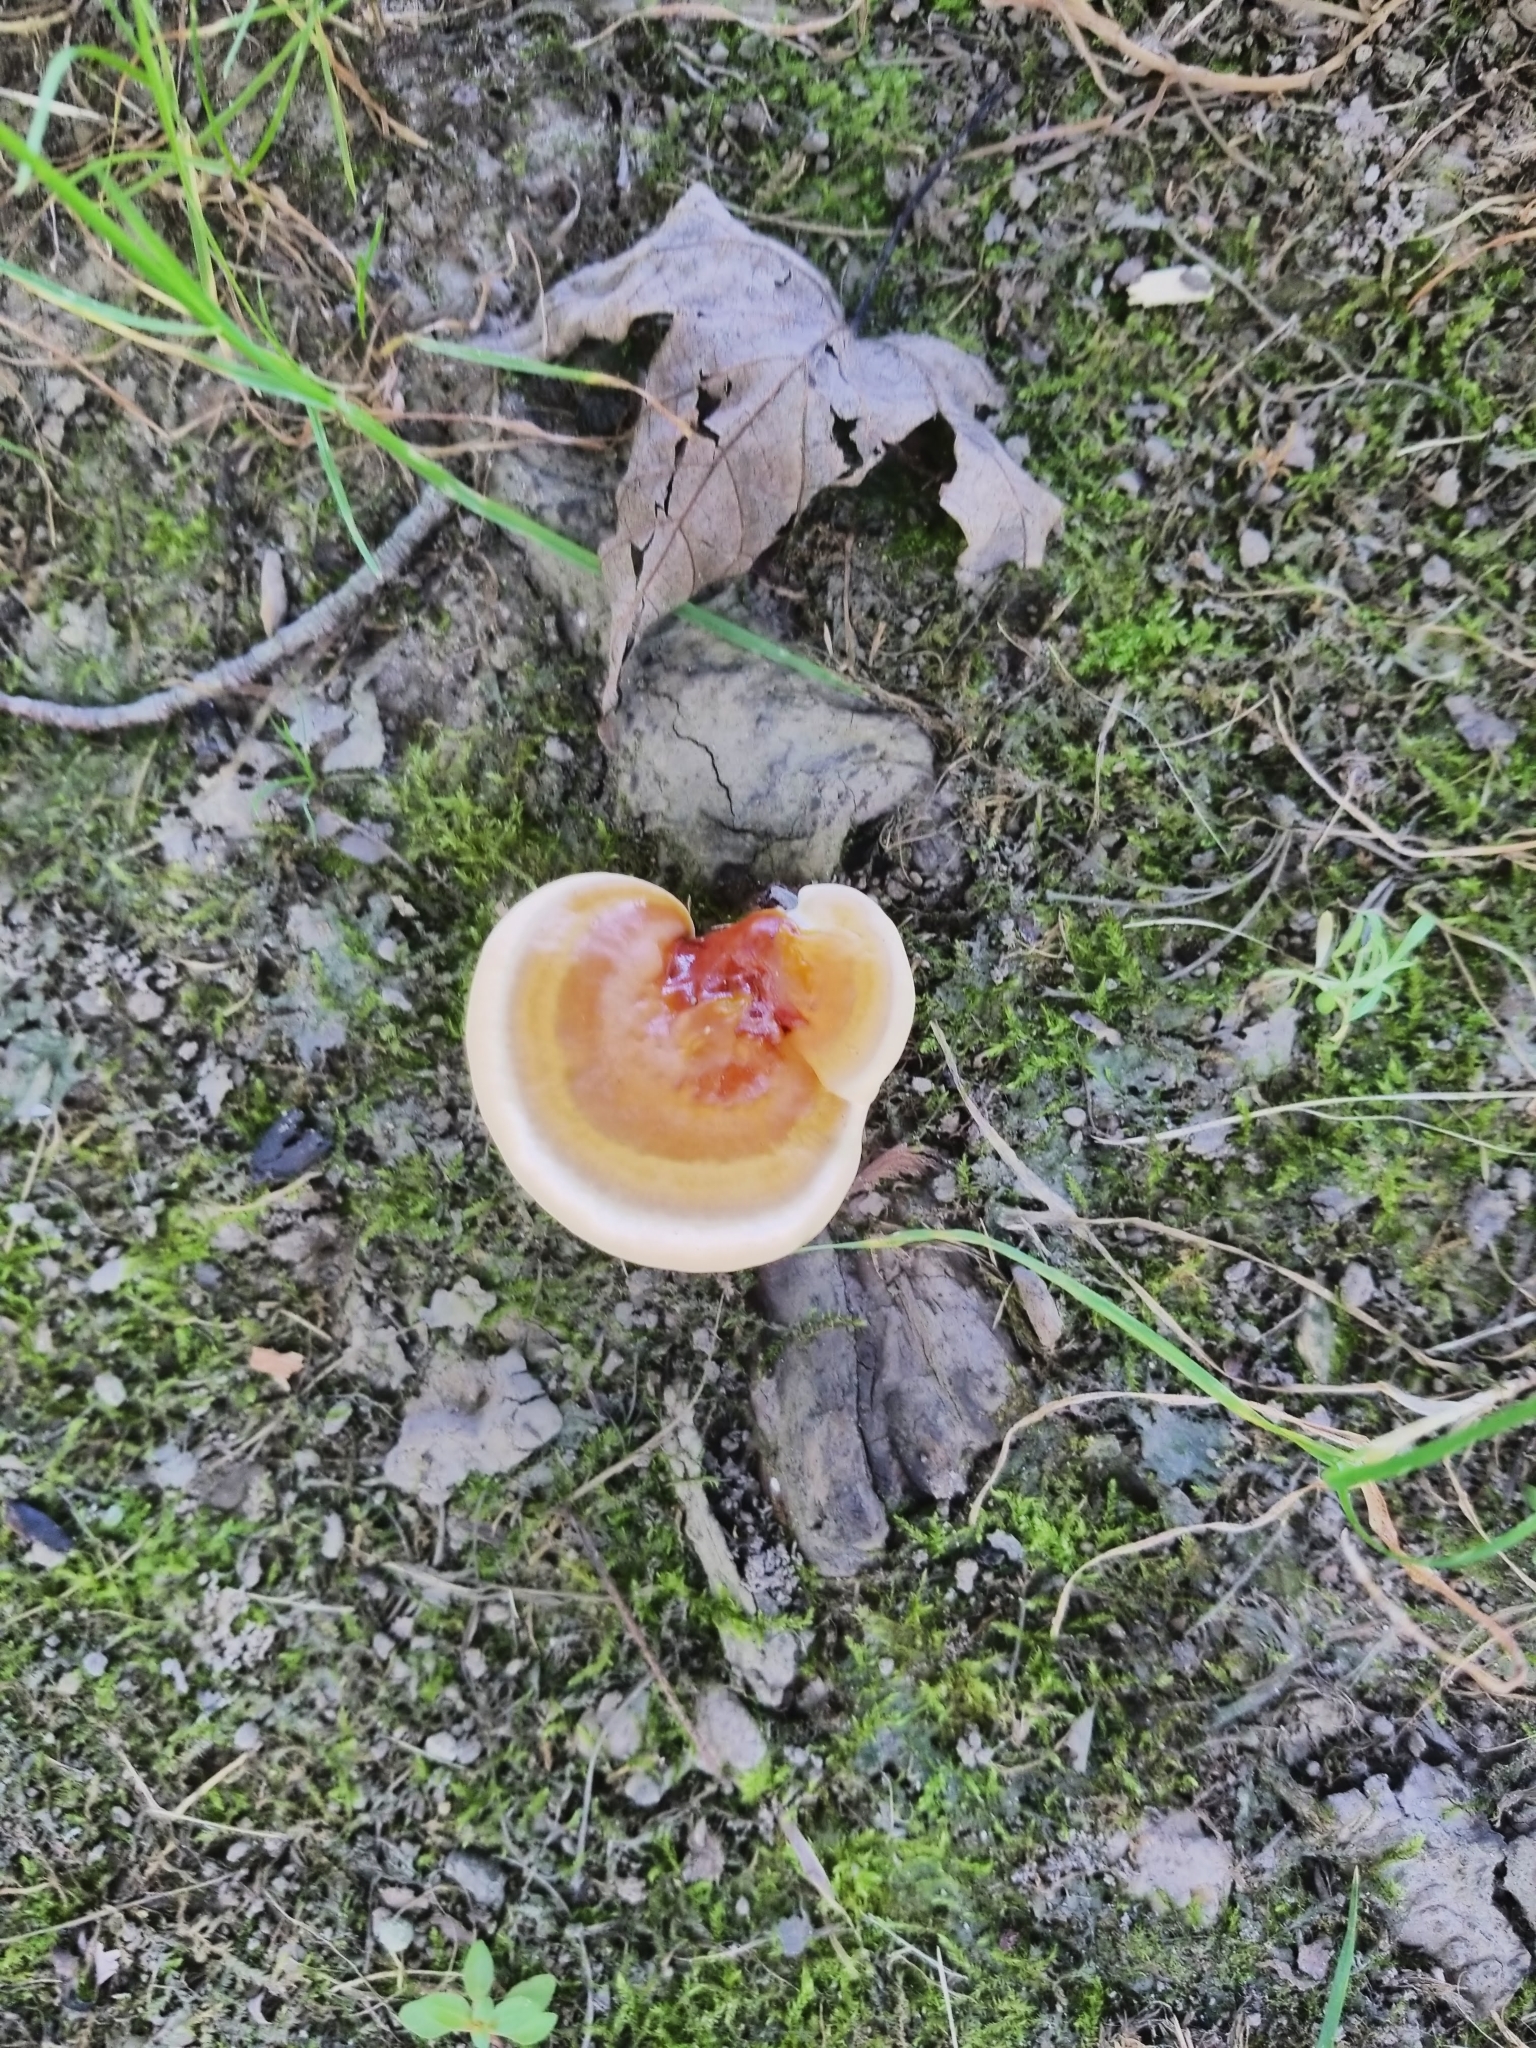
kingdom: Fungi
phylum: Basidiomycota
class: Agaricomycetes
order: Polyporales
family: Polyporaceae
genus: Ganoderma
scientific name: Ganoderma tsugae
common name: Hemlock varnish shelf
